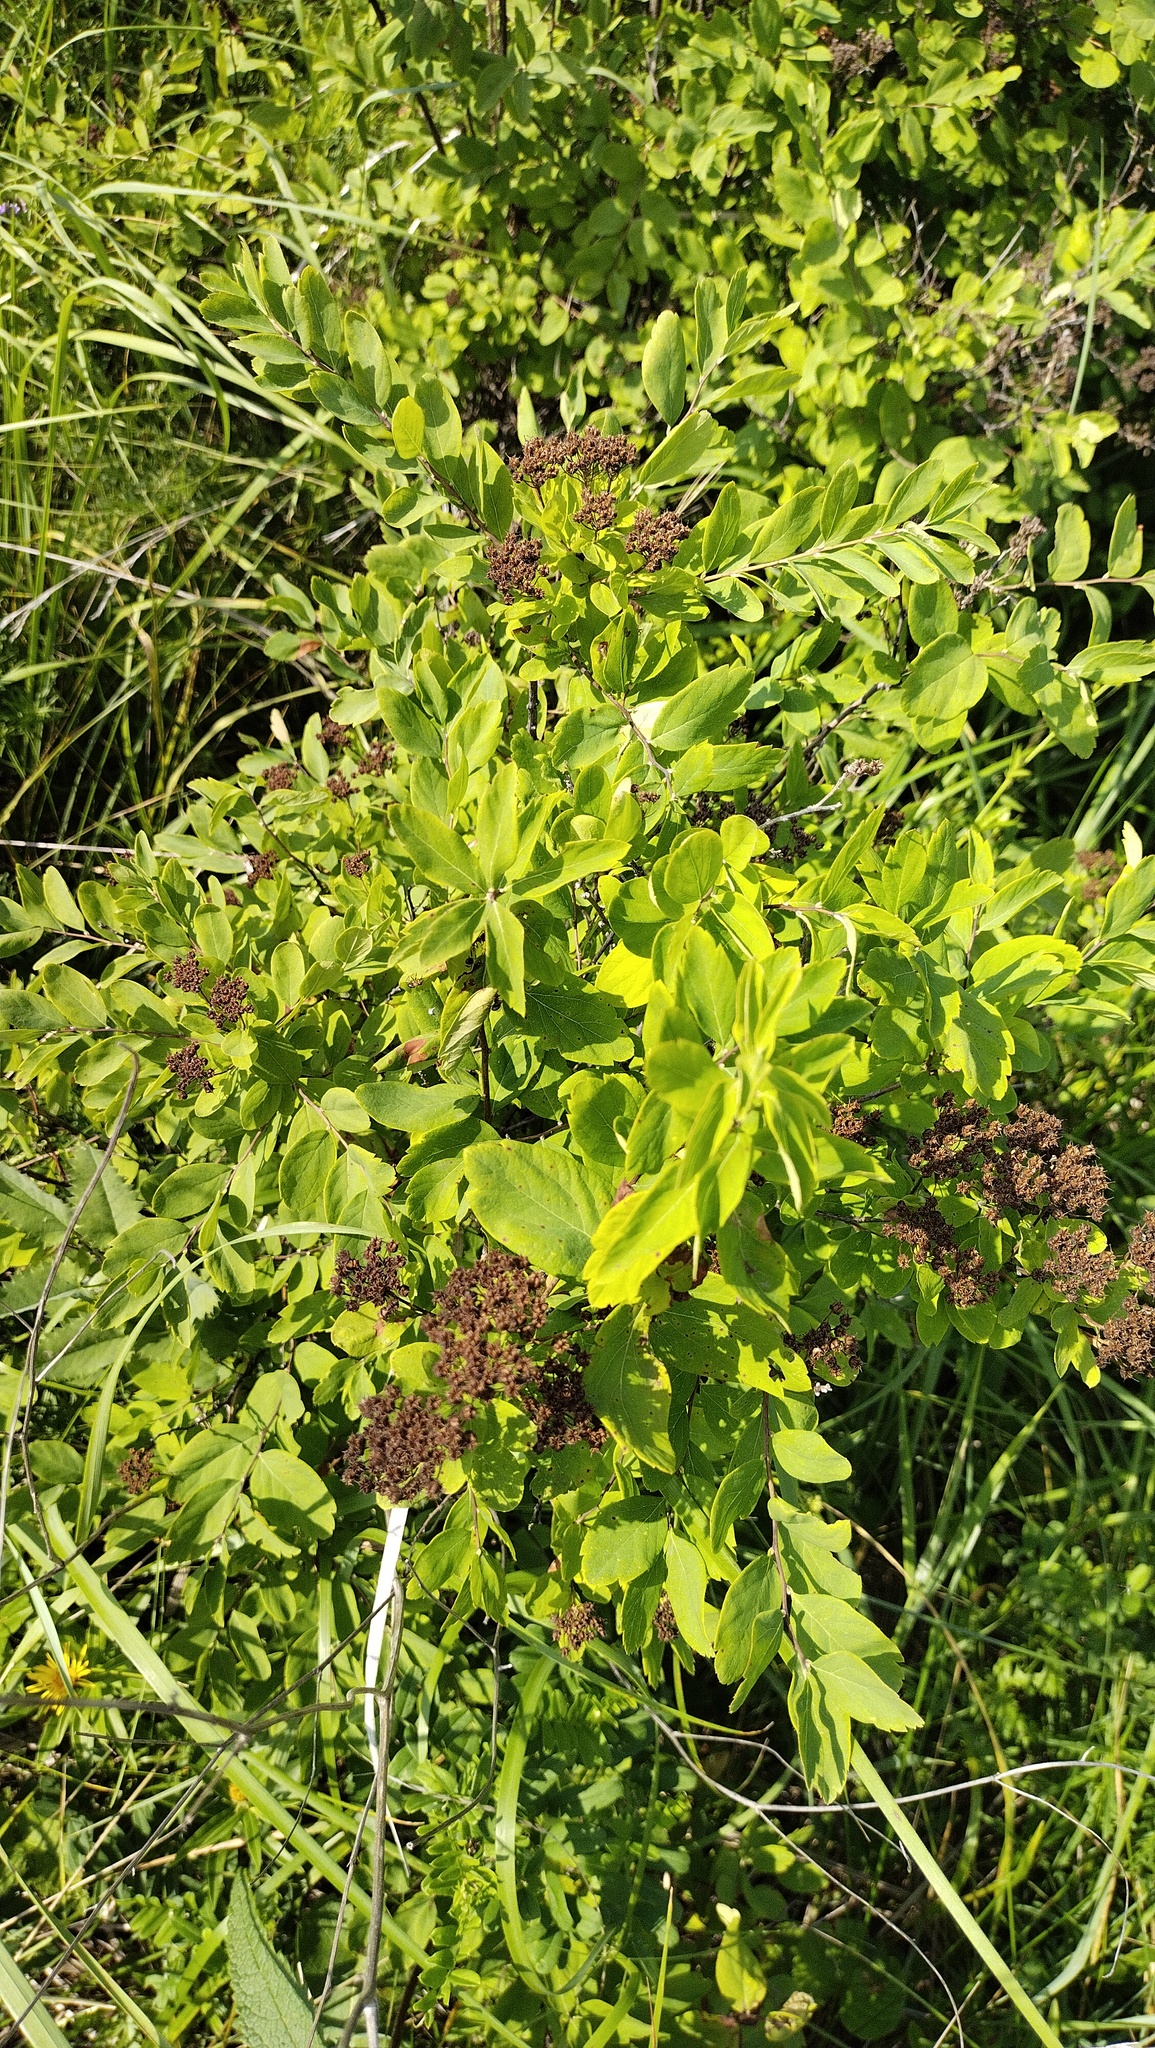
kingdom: Plantae
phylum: Tracheophyta
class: Magnoliopsida
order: Rosales
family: Rosaceae
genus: Spiraea
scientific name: Spiraea media
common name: Russian spiraea
